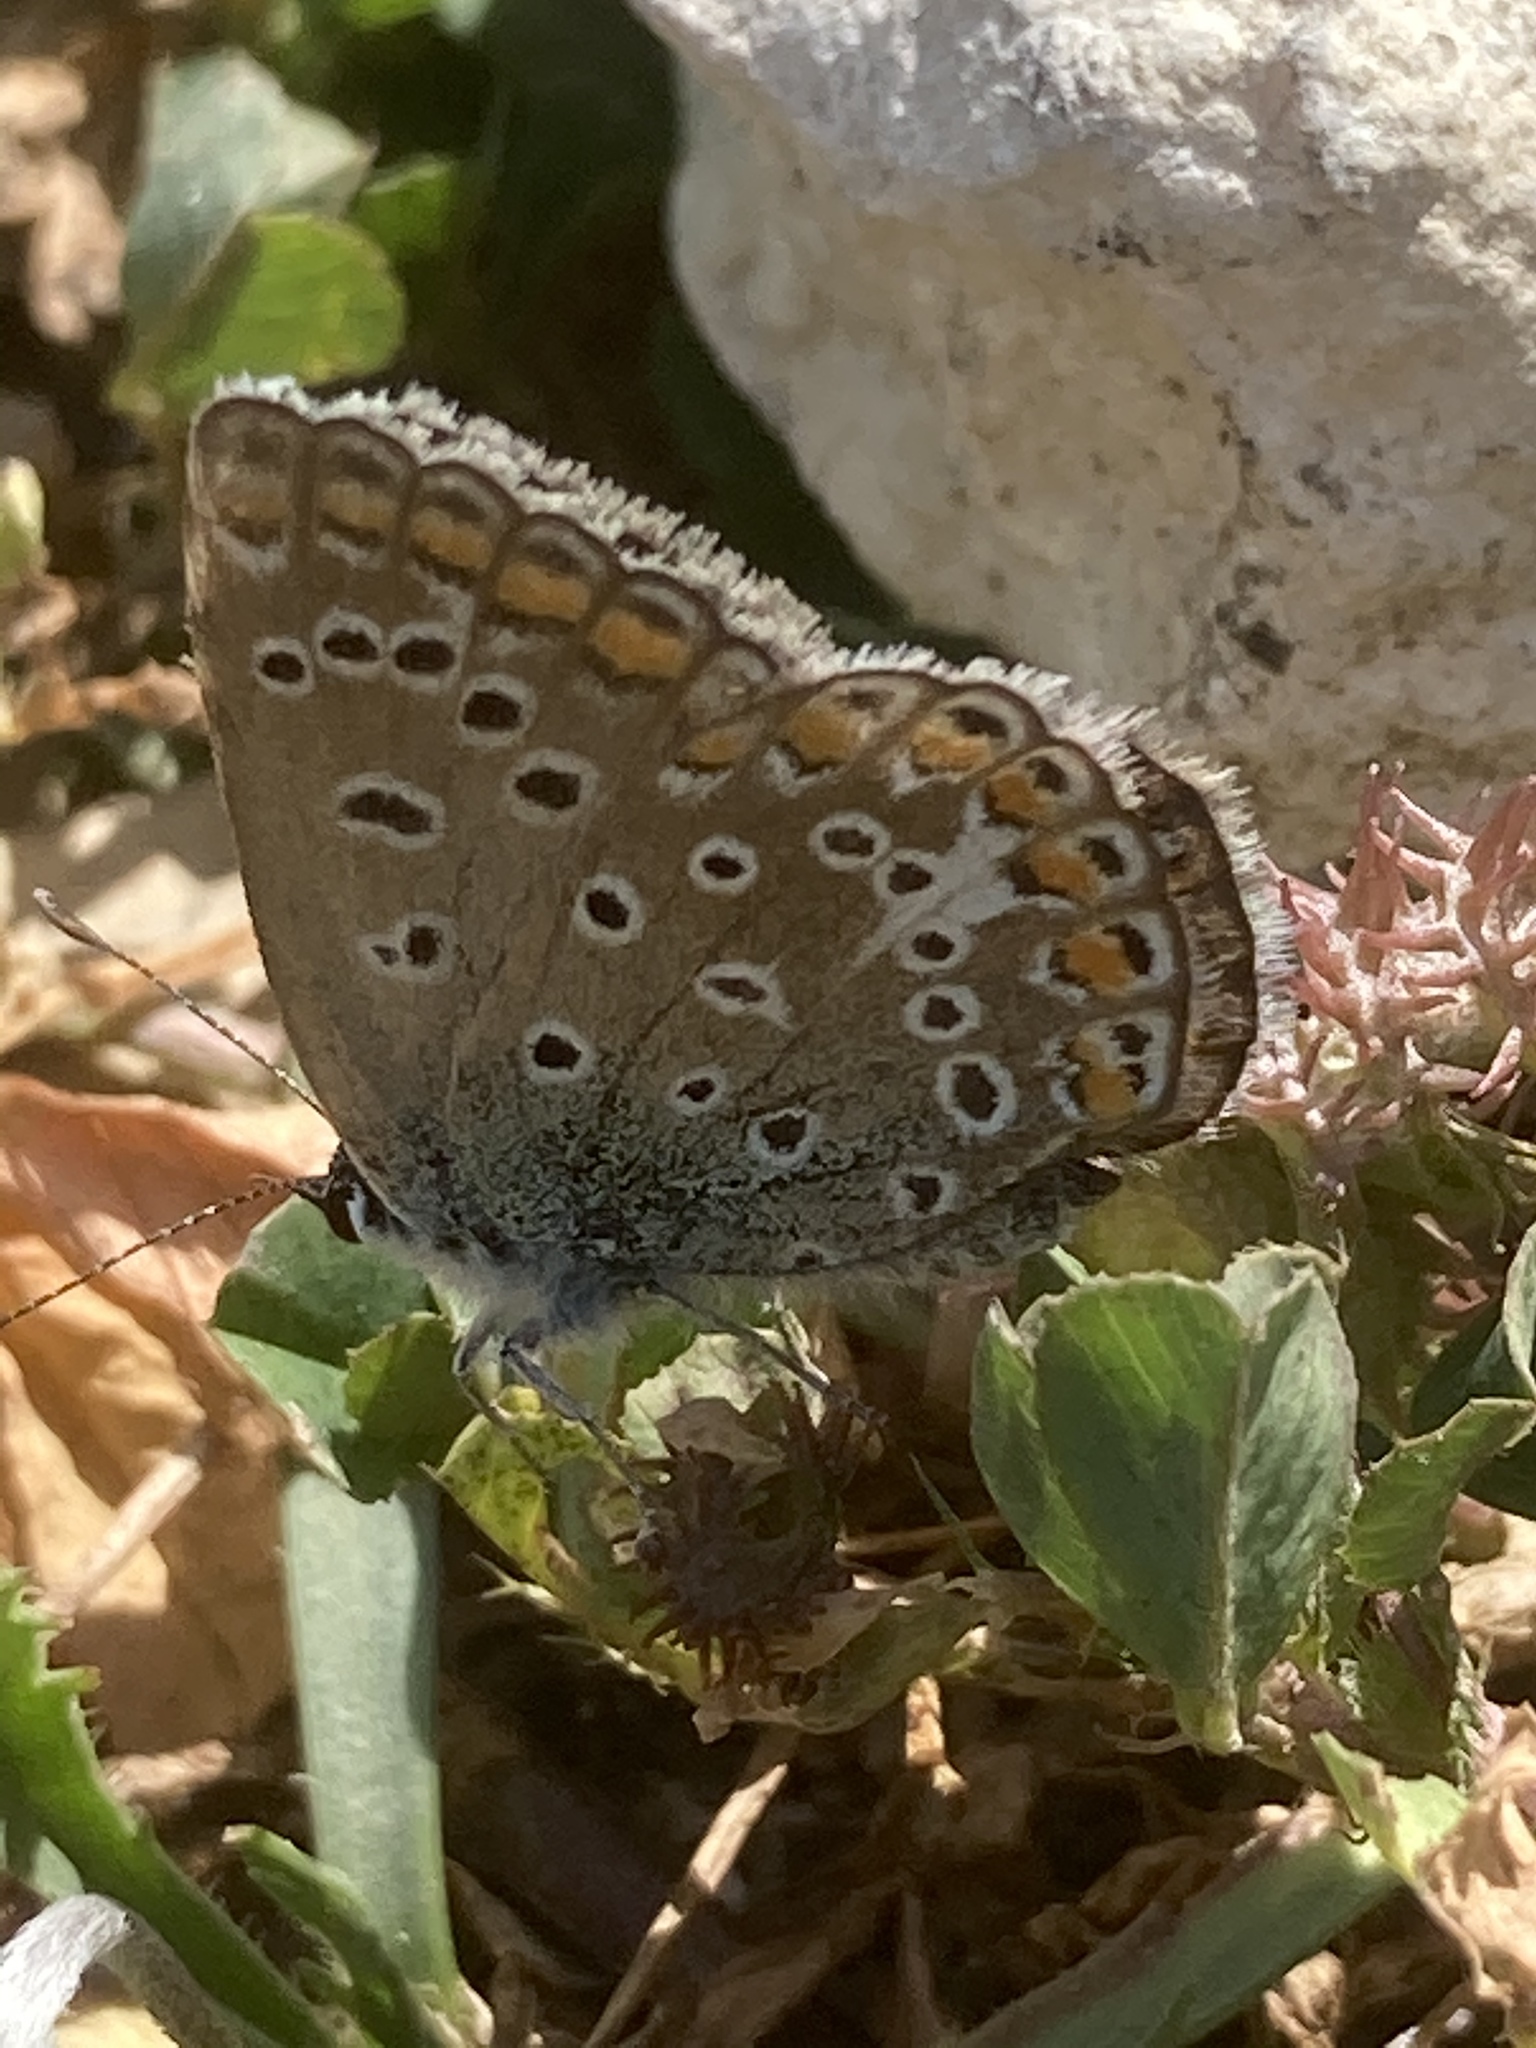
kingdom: Animalia
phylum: Arthropoda
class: Insecta
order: Lepidoptera
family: Lycaenidae
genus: Polyommatus
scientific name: Polyommatus icarus
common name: Common blue
